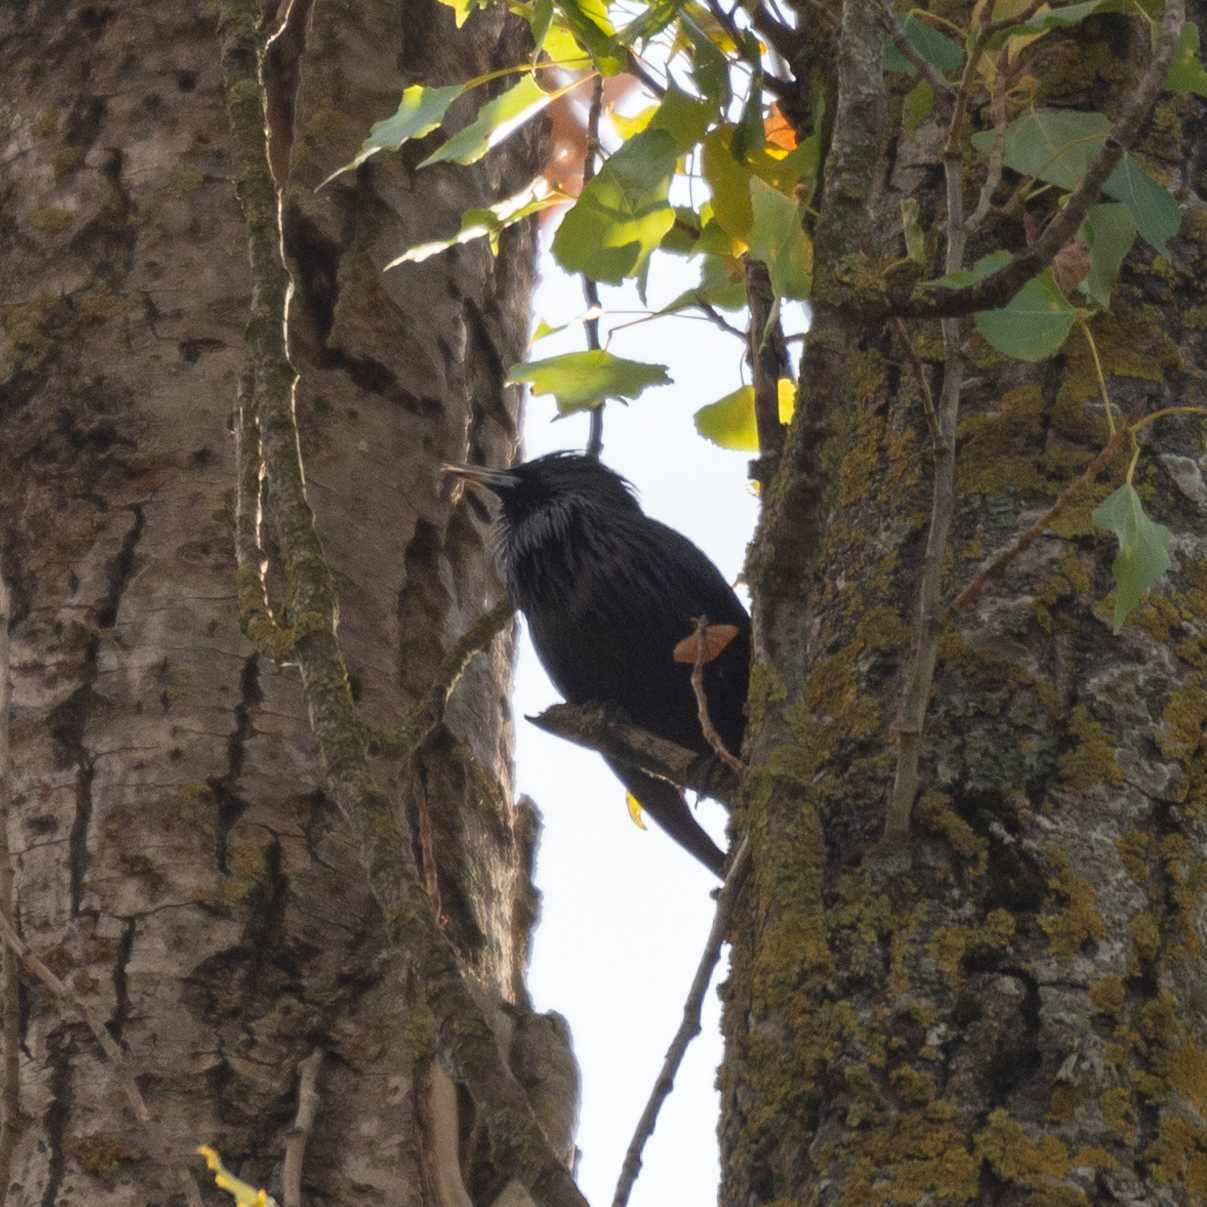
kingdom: Animalia
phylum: Chordata
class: Aves
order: Passeriformes
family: Sturnidae
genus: Sturnus
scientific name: Sturnus unicolor
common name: Spotless starling
